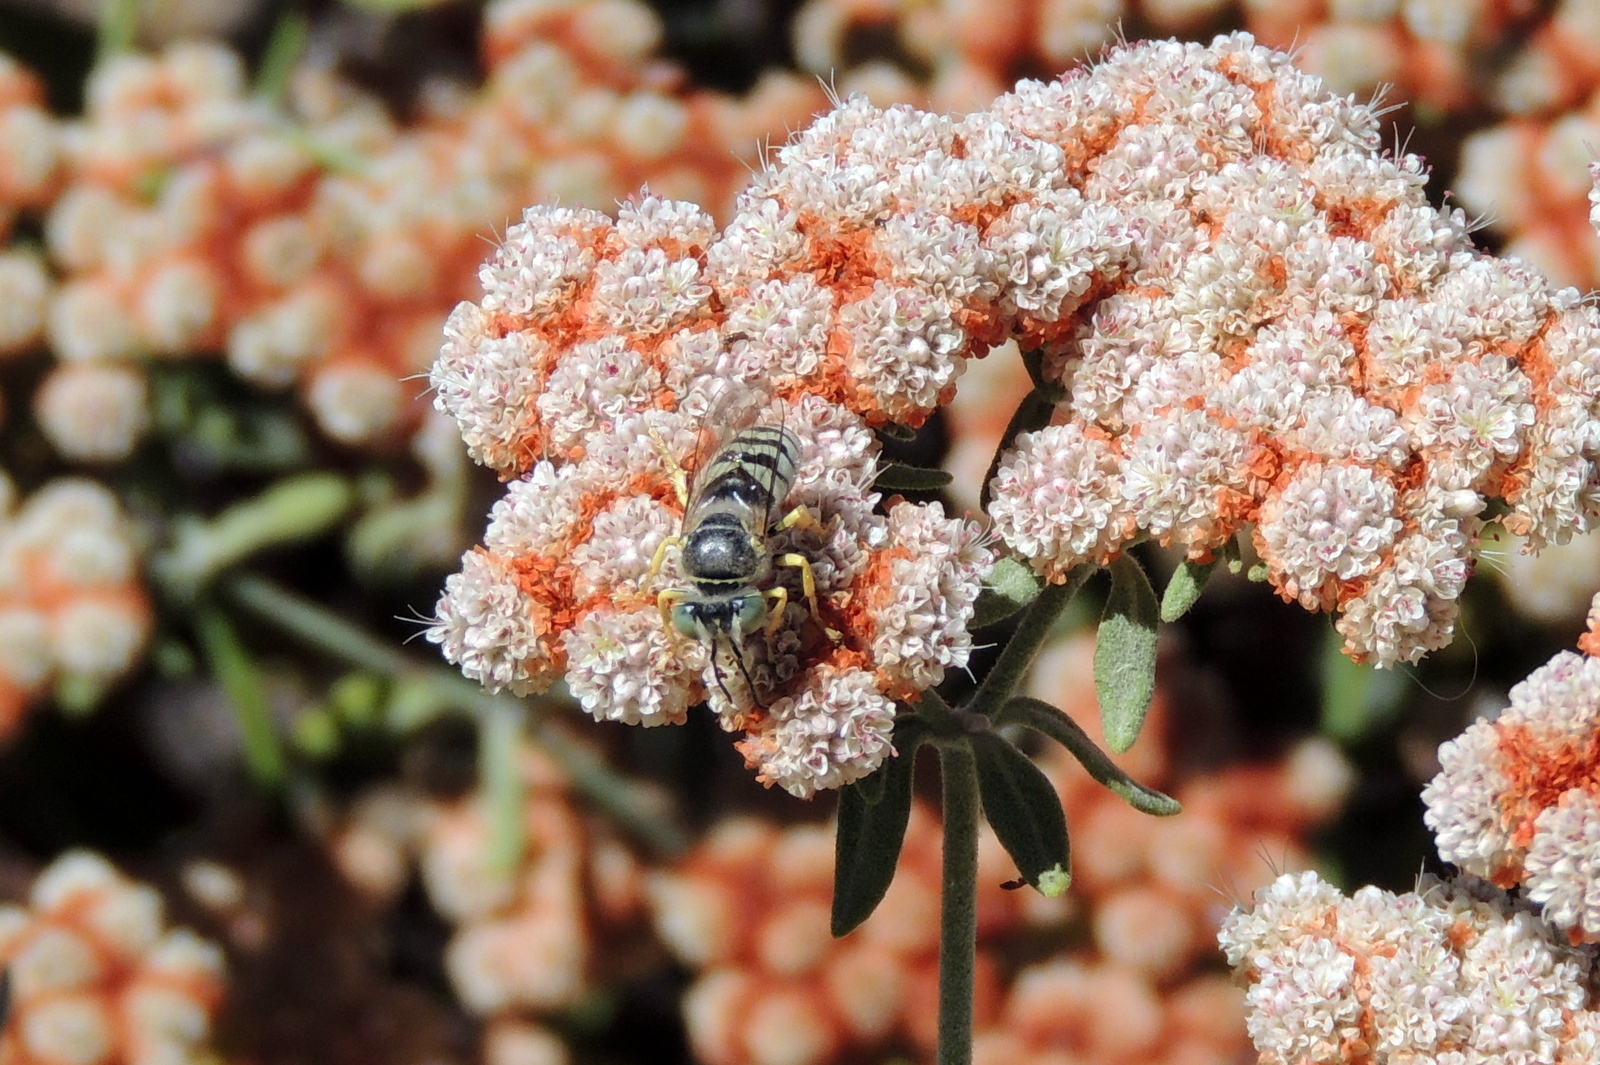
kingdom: Animalia
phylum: Arthropoda
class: Insecta
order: Hymenoptera
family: Crabronidae
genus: Bembix
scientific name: Bembix americana
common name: American sand wasp
